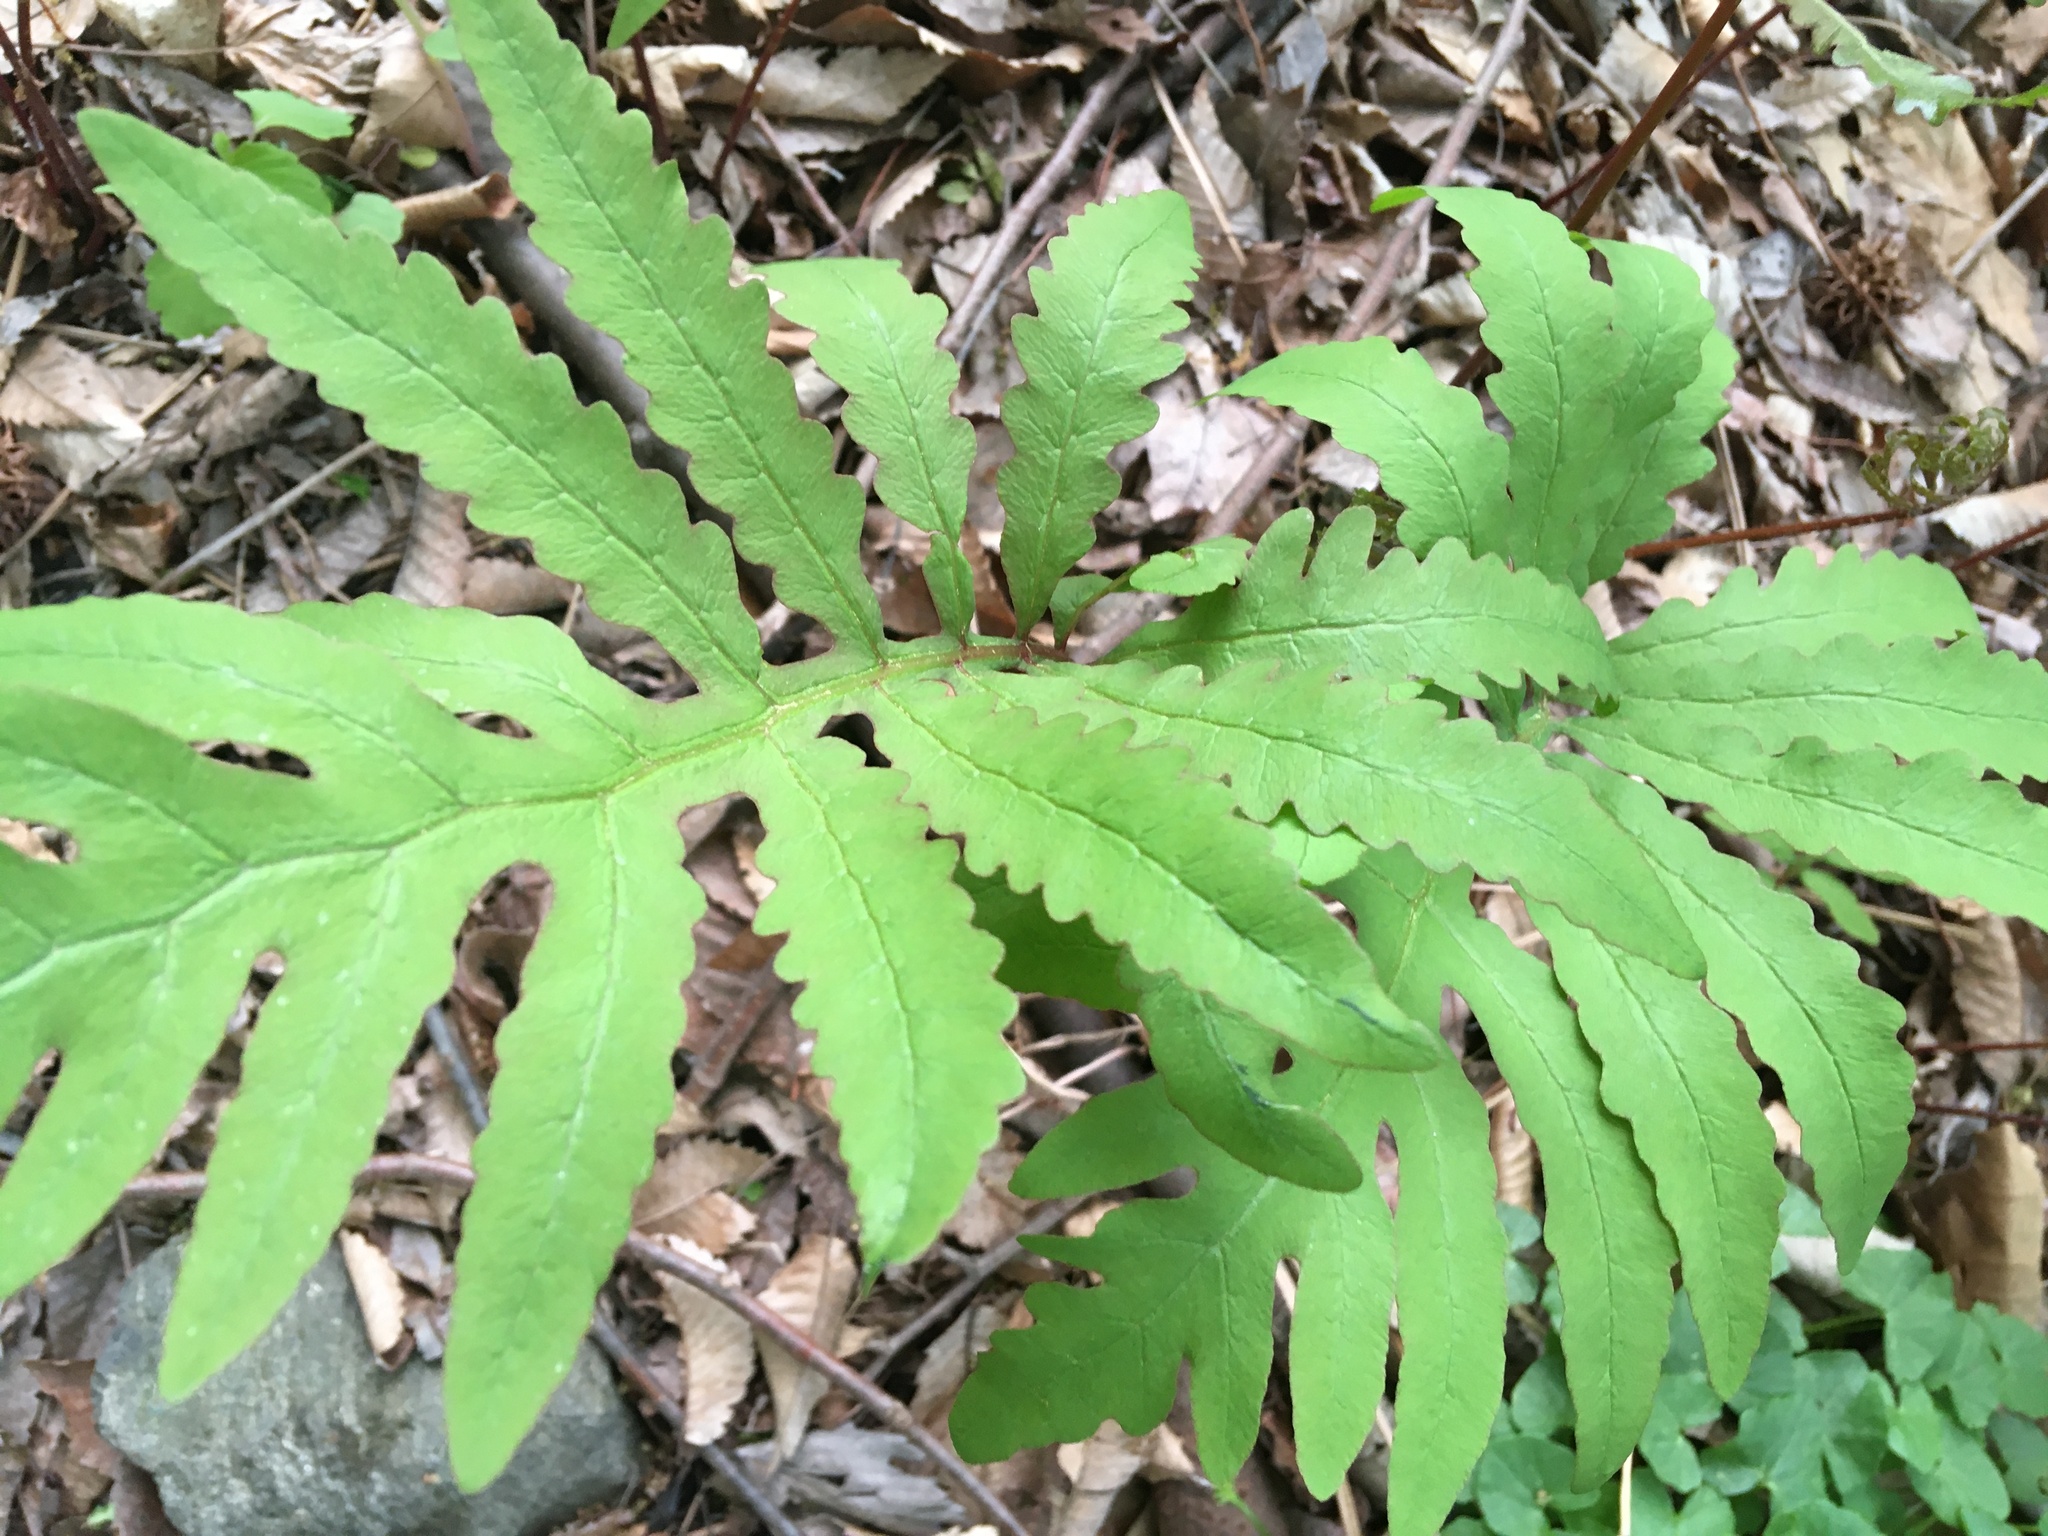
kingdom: Plantae
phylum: Tracheophyta
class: Polypodiopsida
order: Polypodiales
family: Onocleaceae
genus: Onoclea
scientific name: Onoclea sensibilis
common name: Sensitive fern
